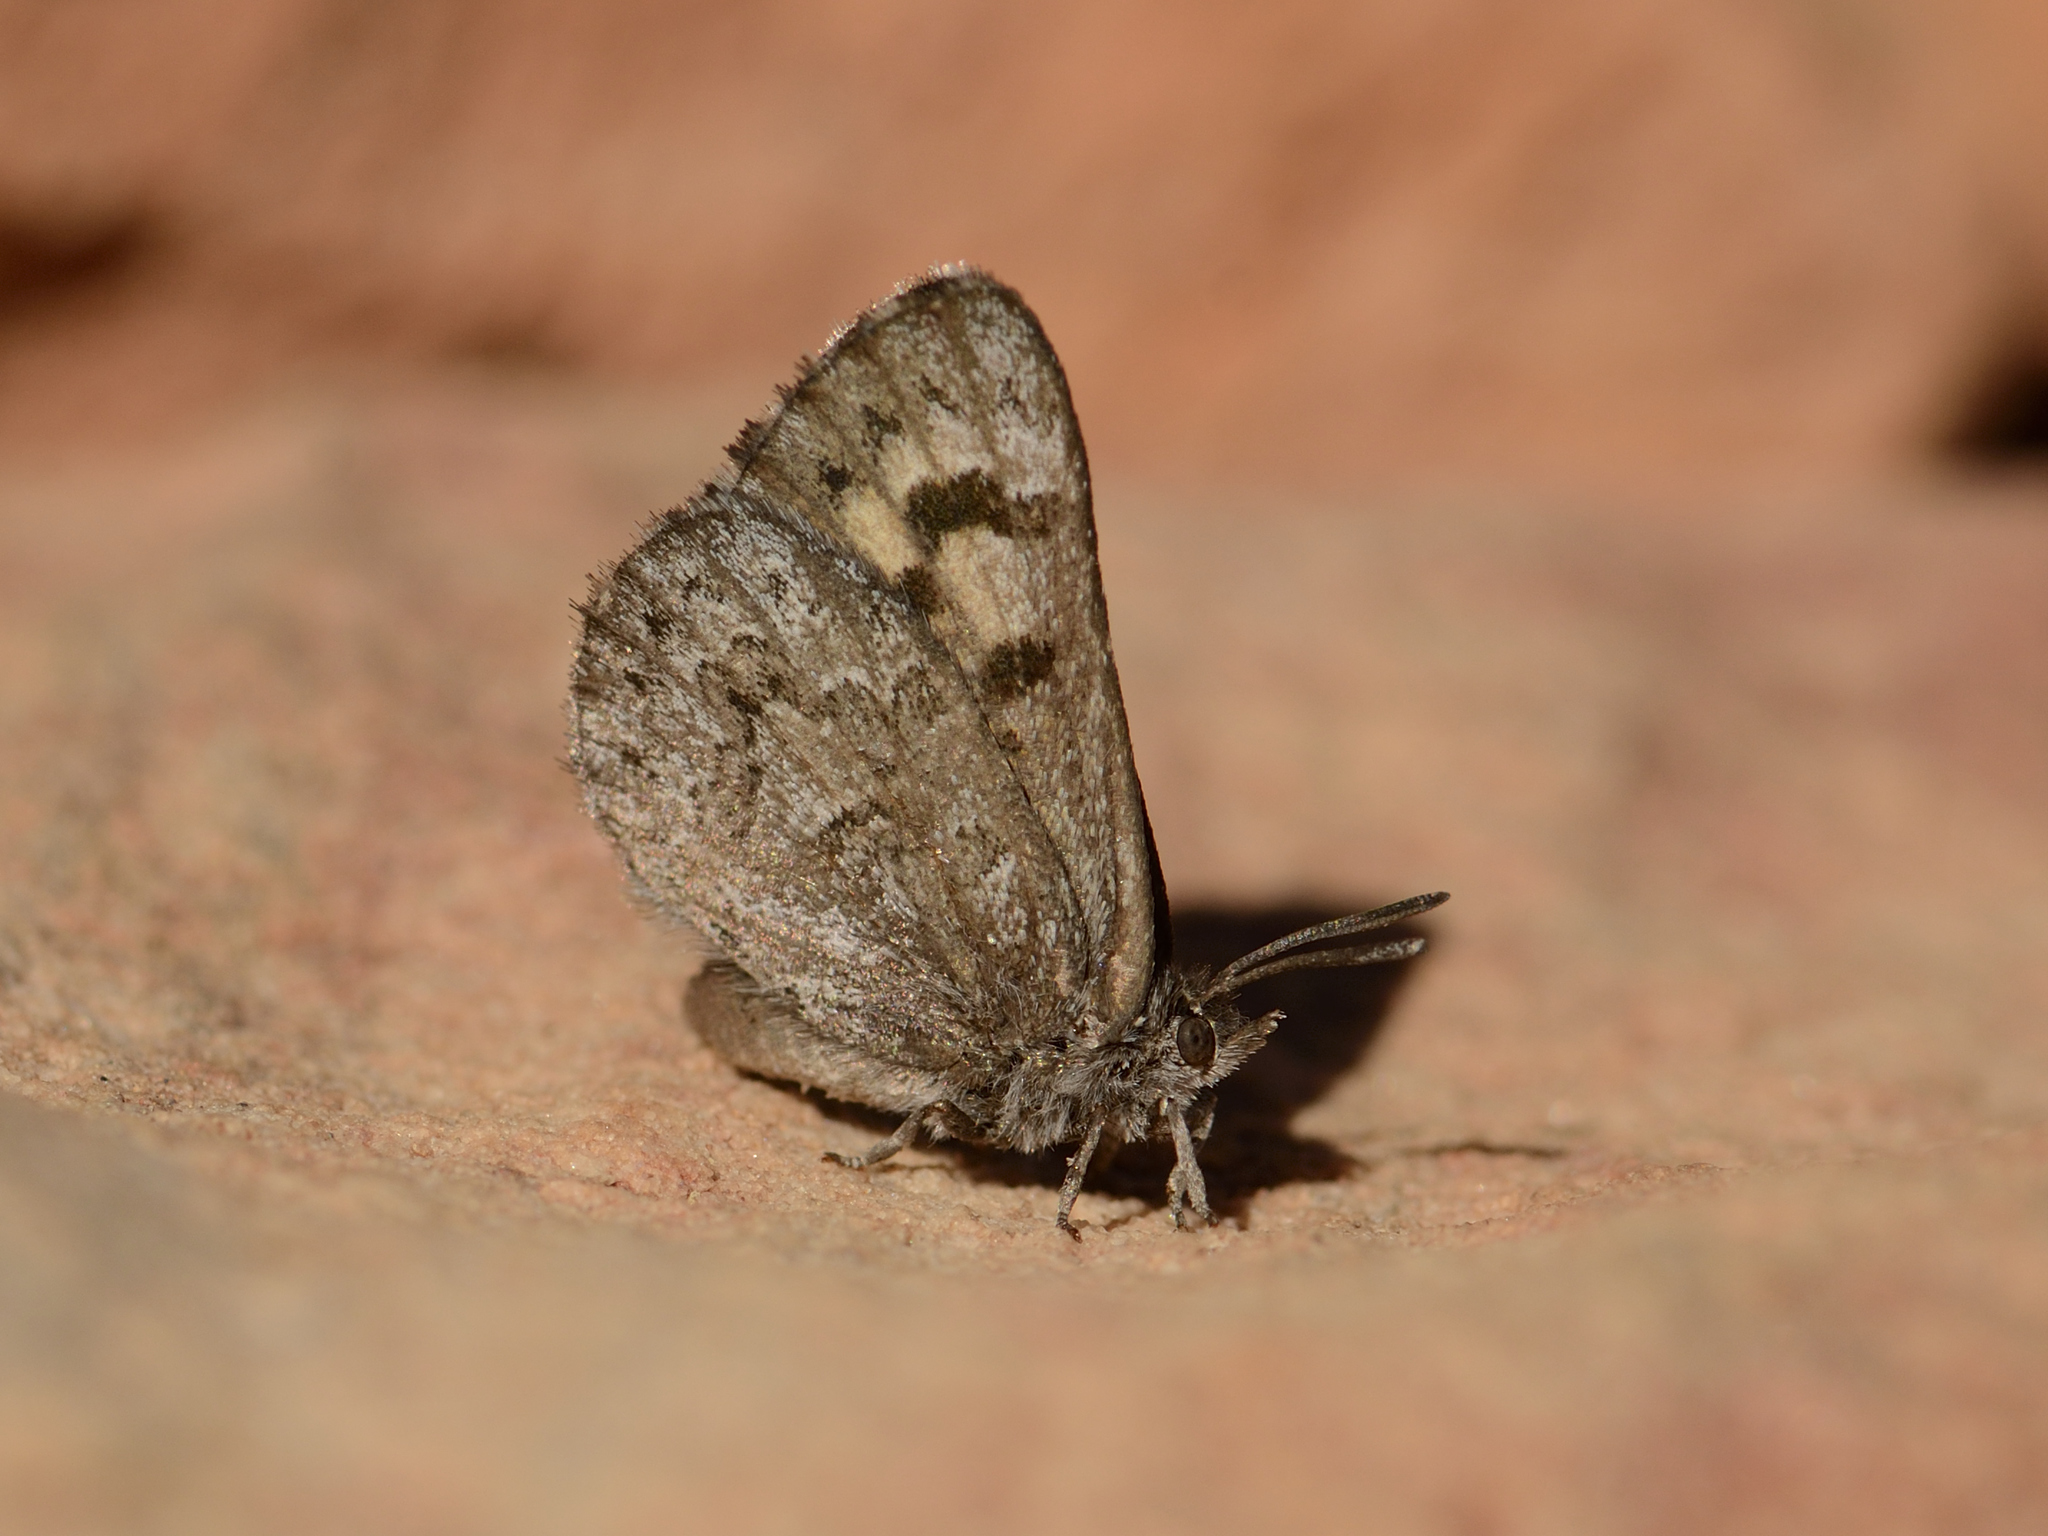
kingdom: Animalia
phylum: Arthropoda
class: Insecta
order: Lepidoptera
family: Lycaenidae
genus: Thestor
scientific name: Thestor vansoni
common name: Van son's skolly
